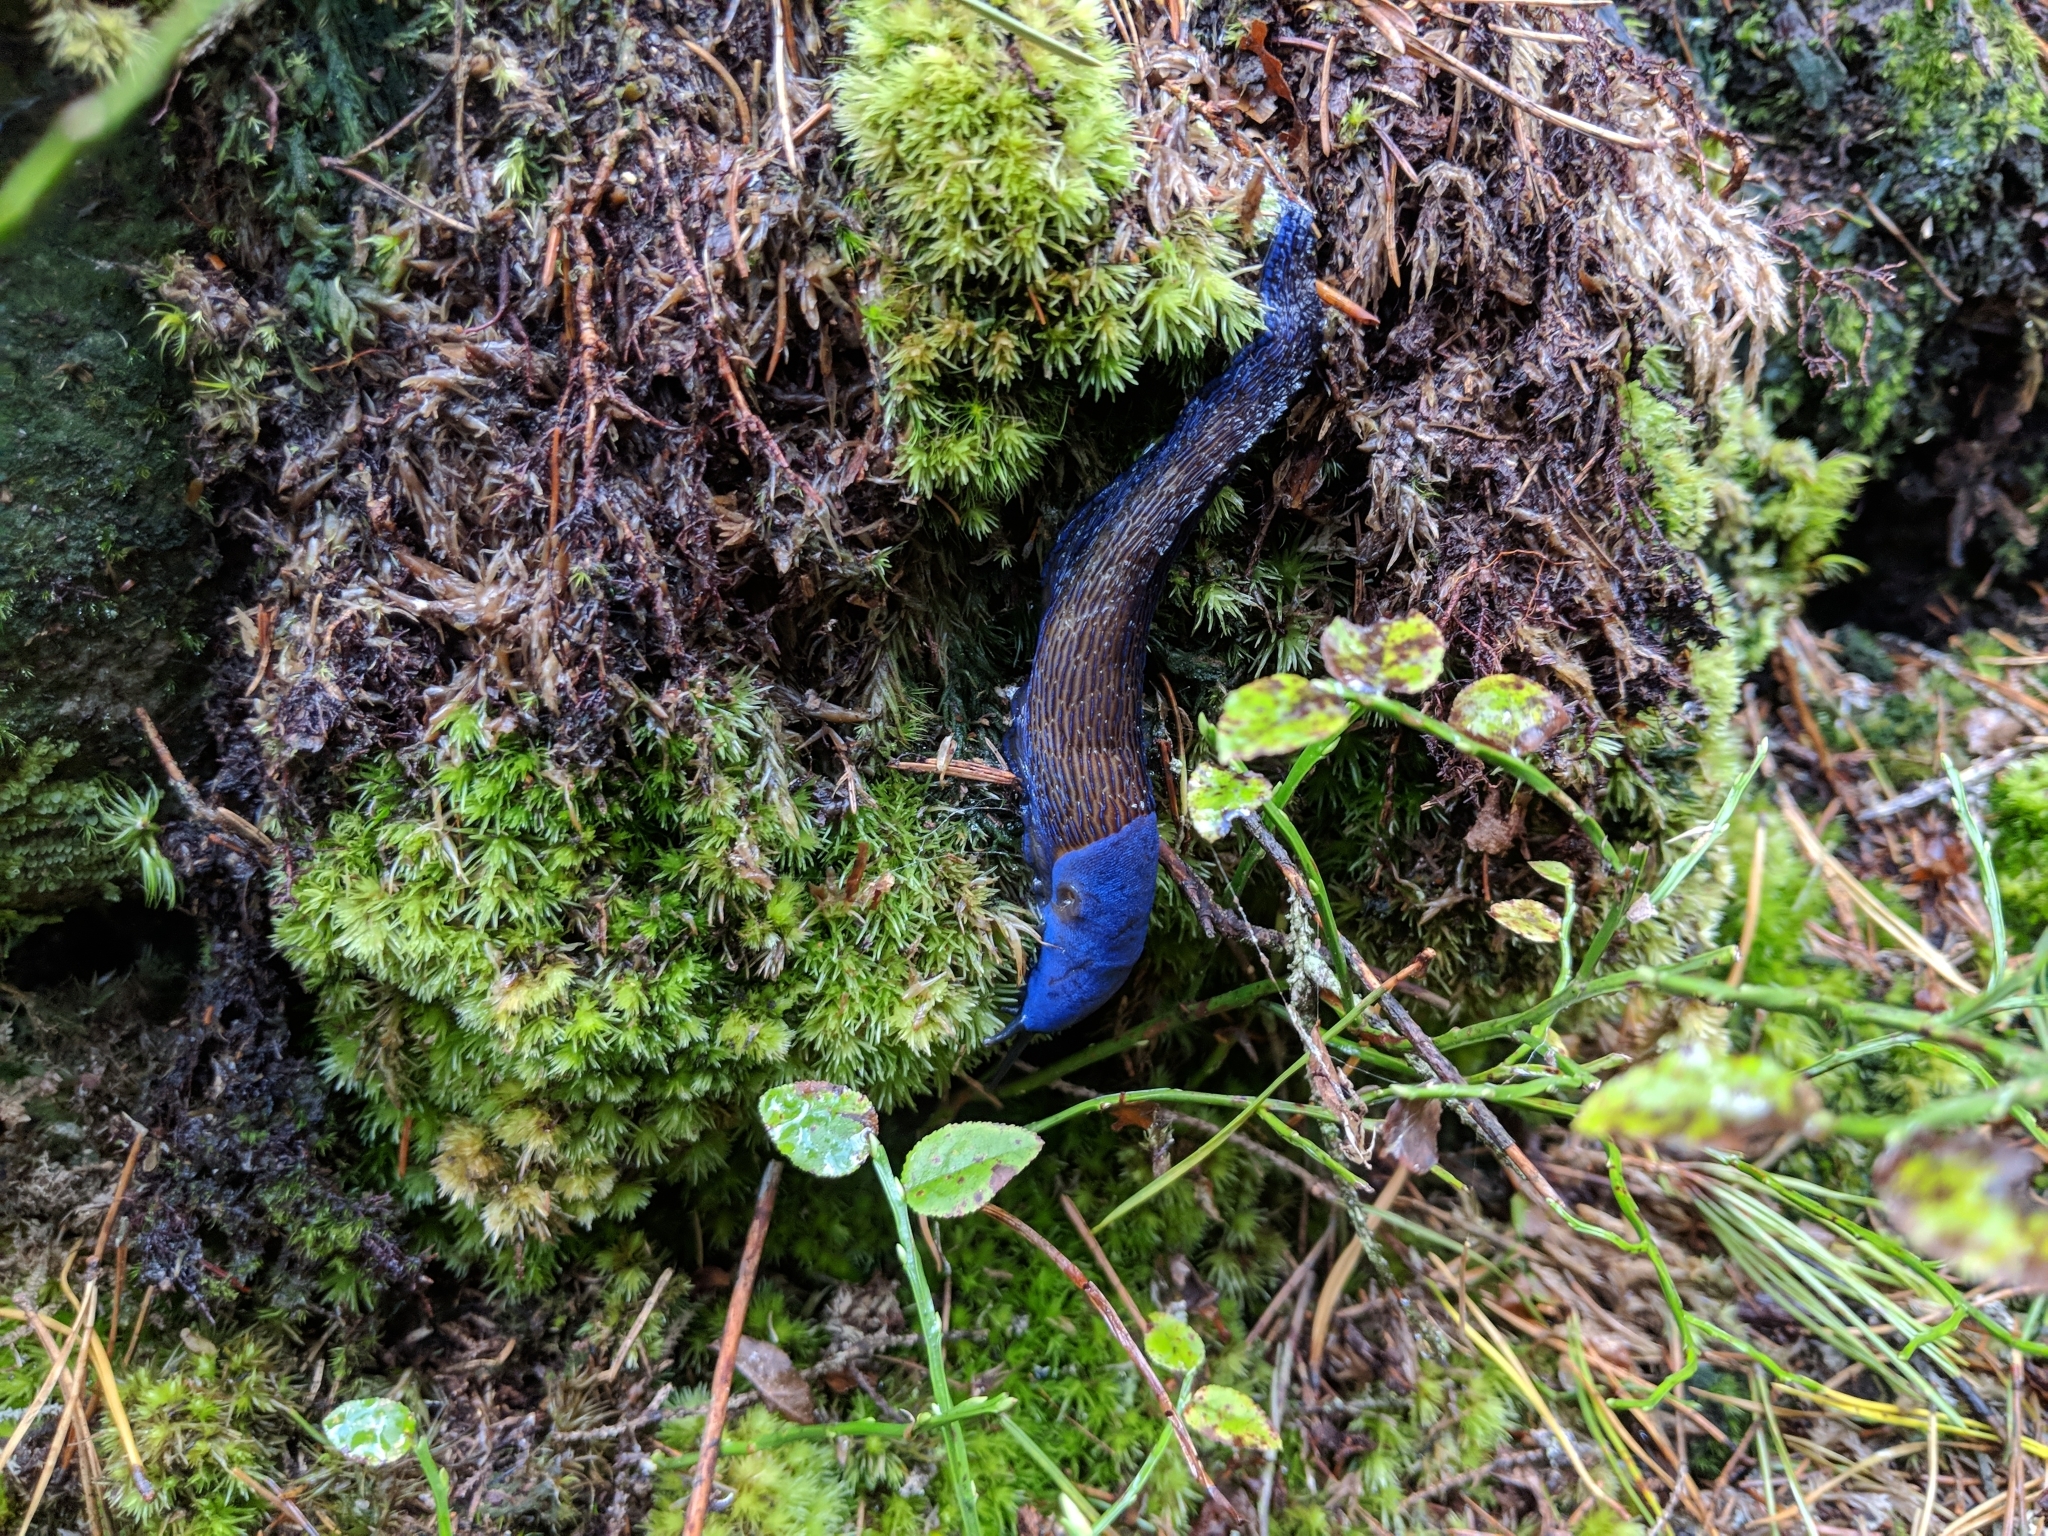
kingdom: Animalia
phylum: Mollusca
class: Gastropoda
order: Stylommatophora
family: Limacidae
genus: Bielzia
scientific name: Bielzia coerulans
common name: Carpathian blue slug
